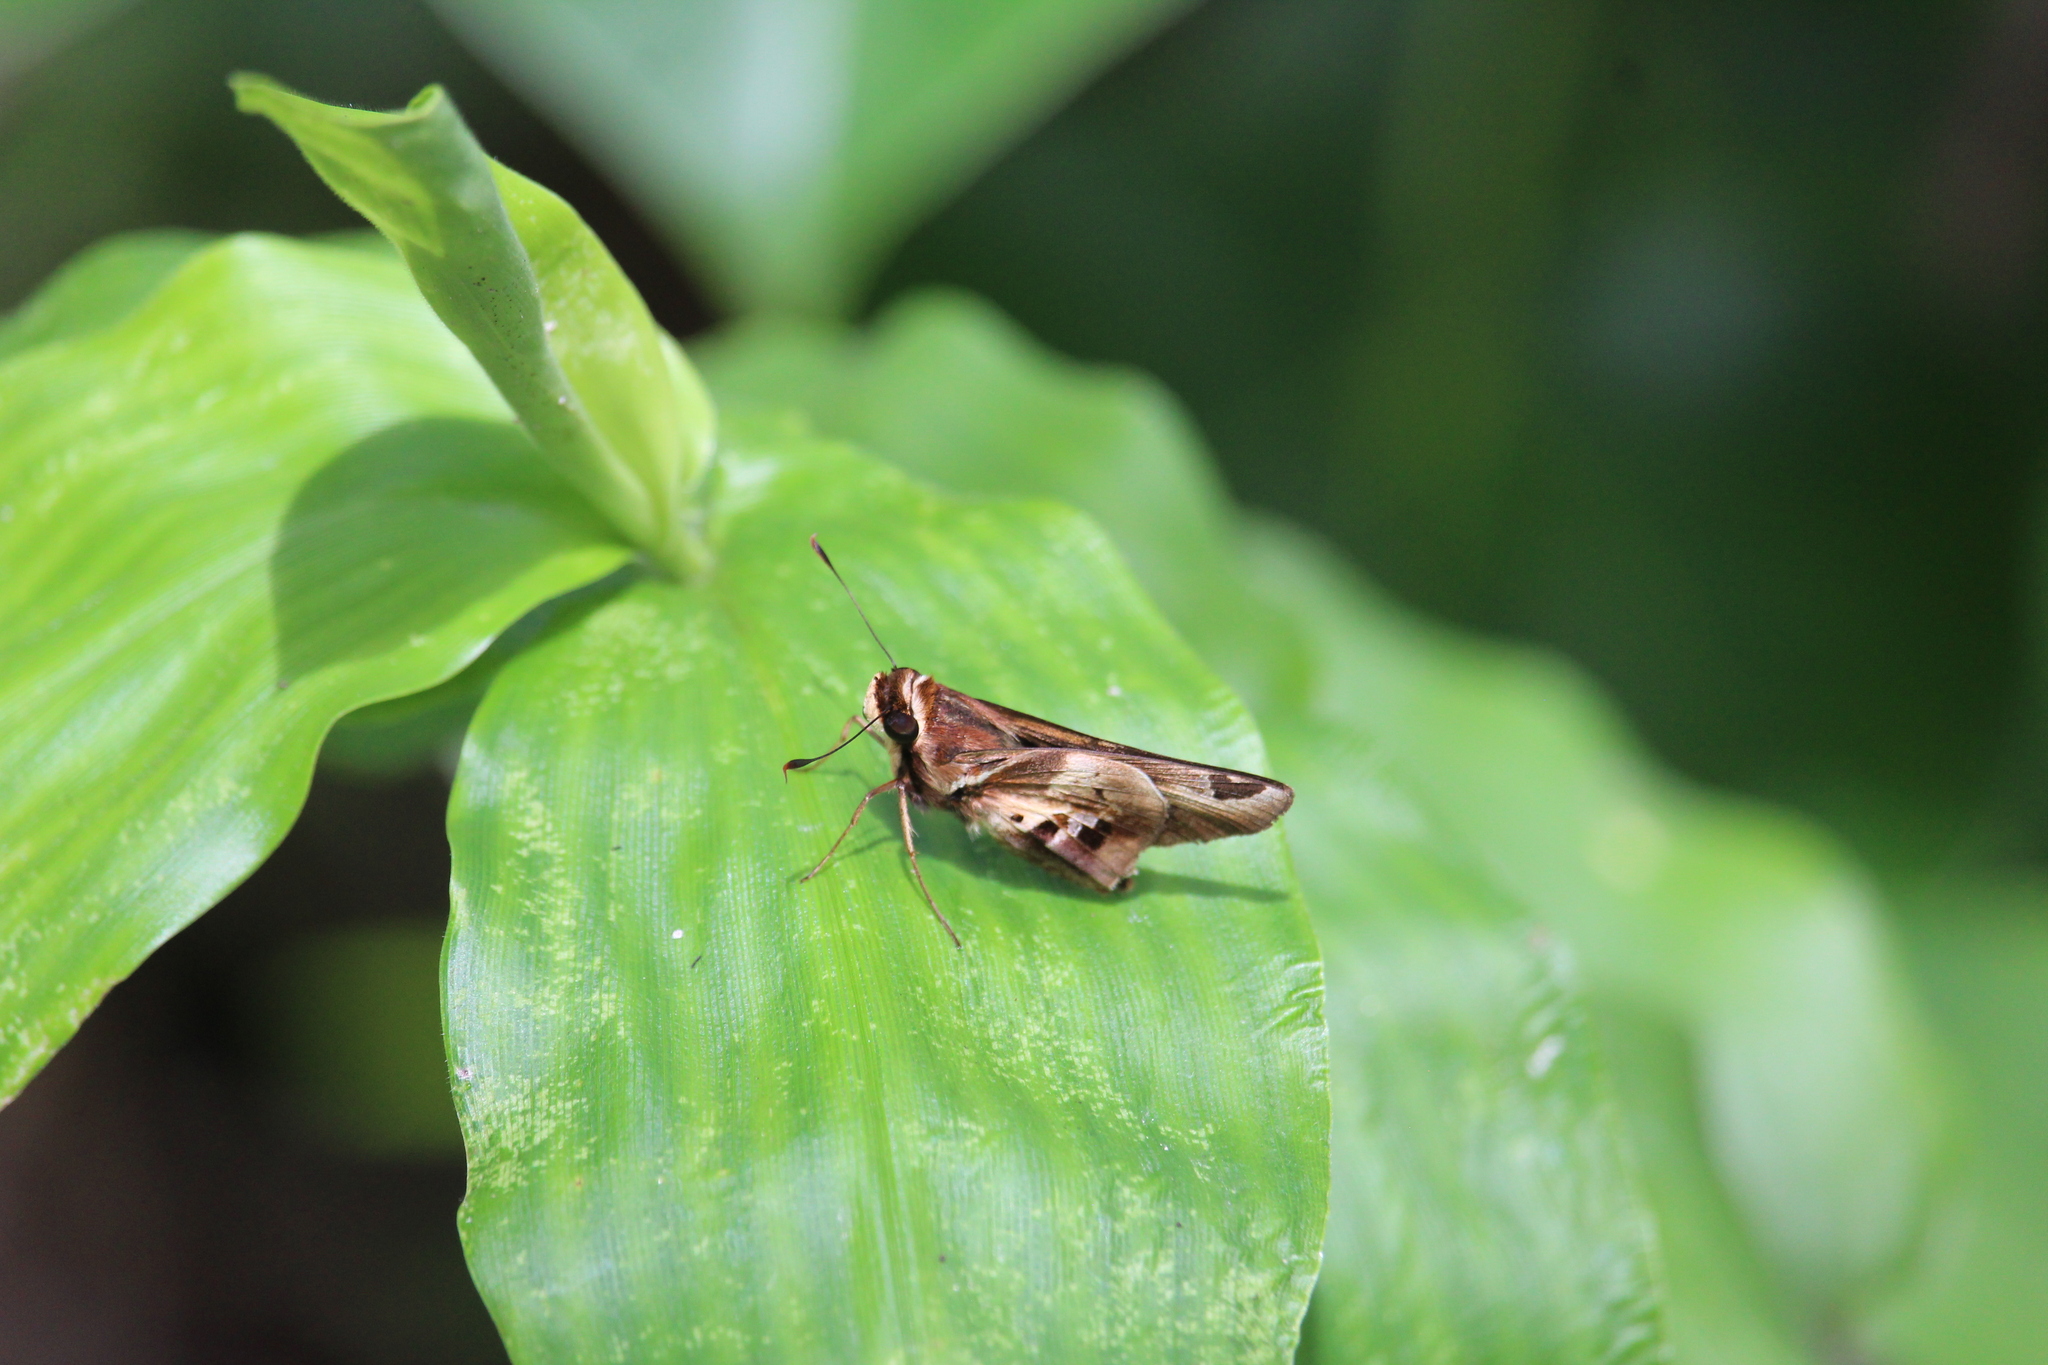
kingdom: Animalia
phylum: Arthropoda
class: Insecta
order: Lepidoptera
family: Hesperiidae
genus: Thespieus
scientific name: Thespieus dalman
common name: Chalk-marked skipper
